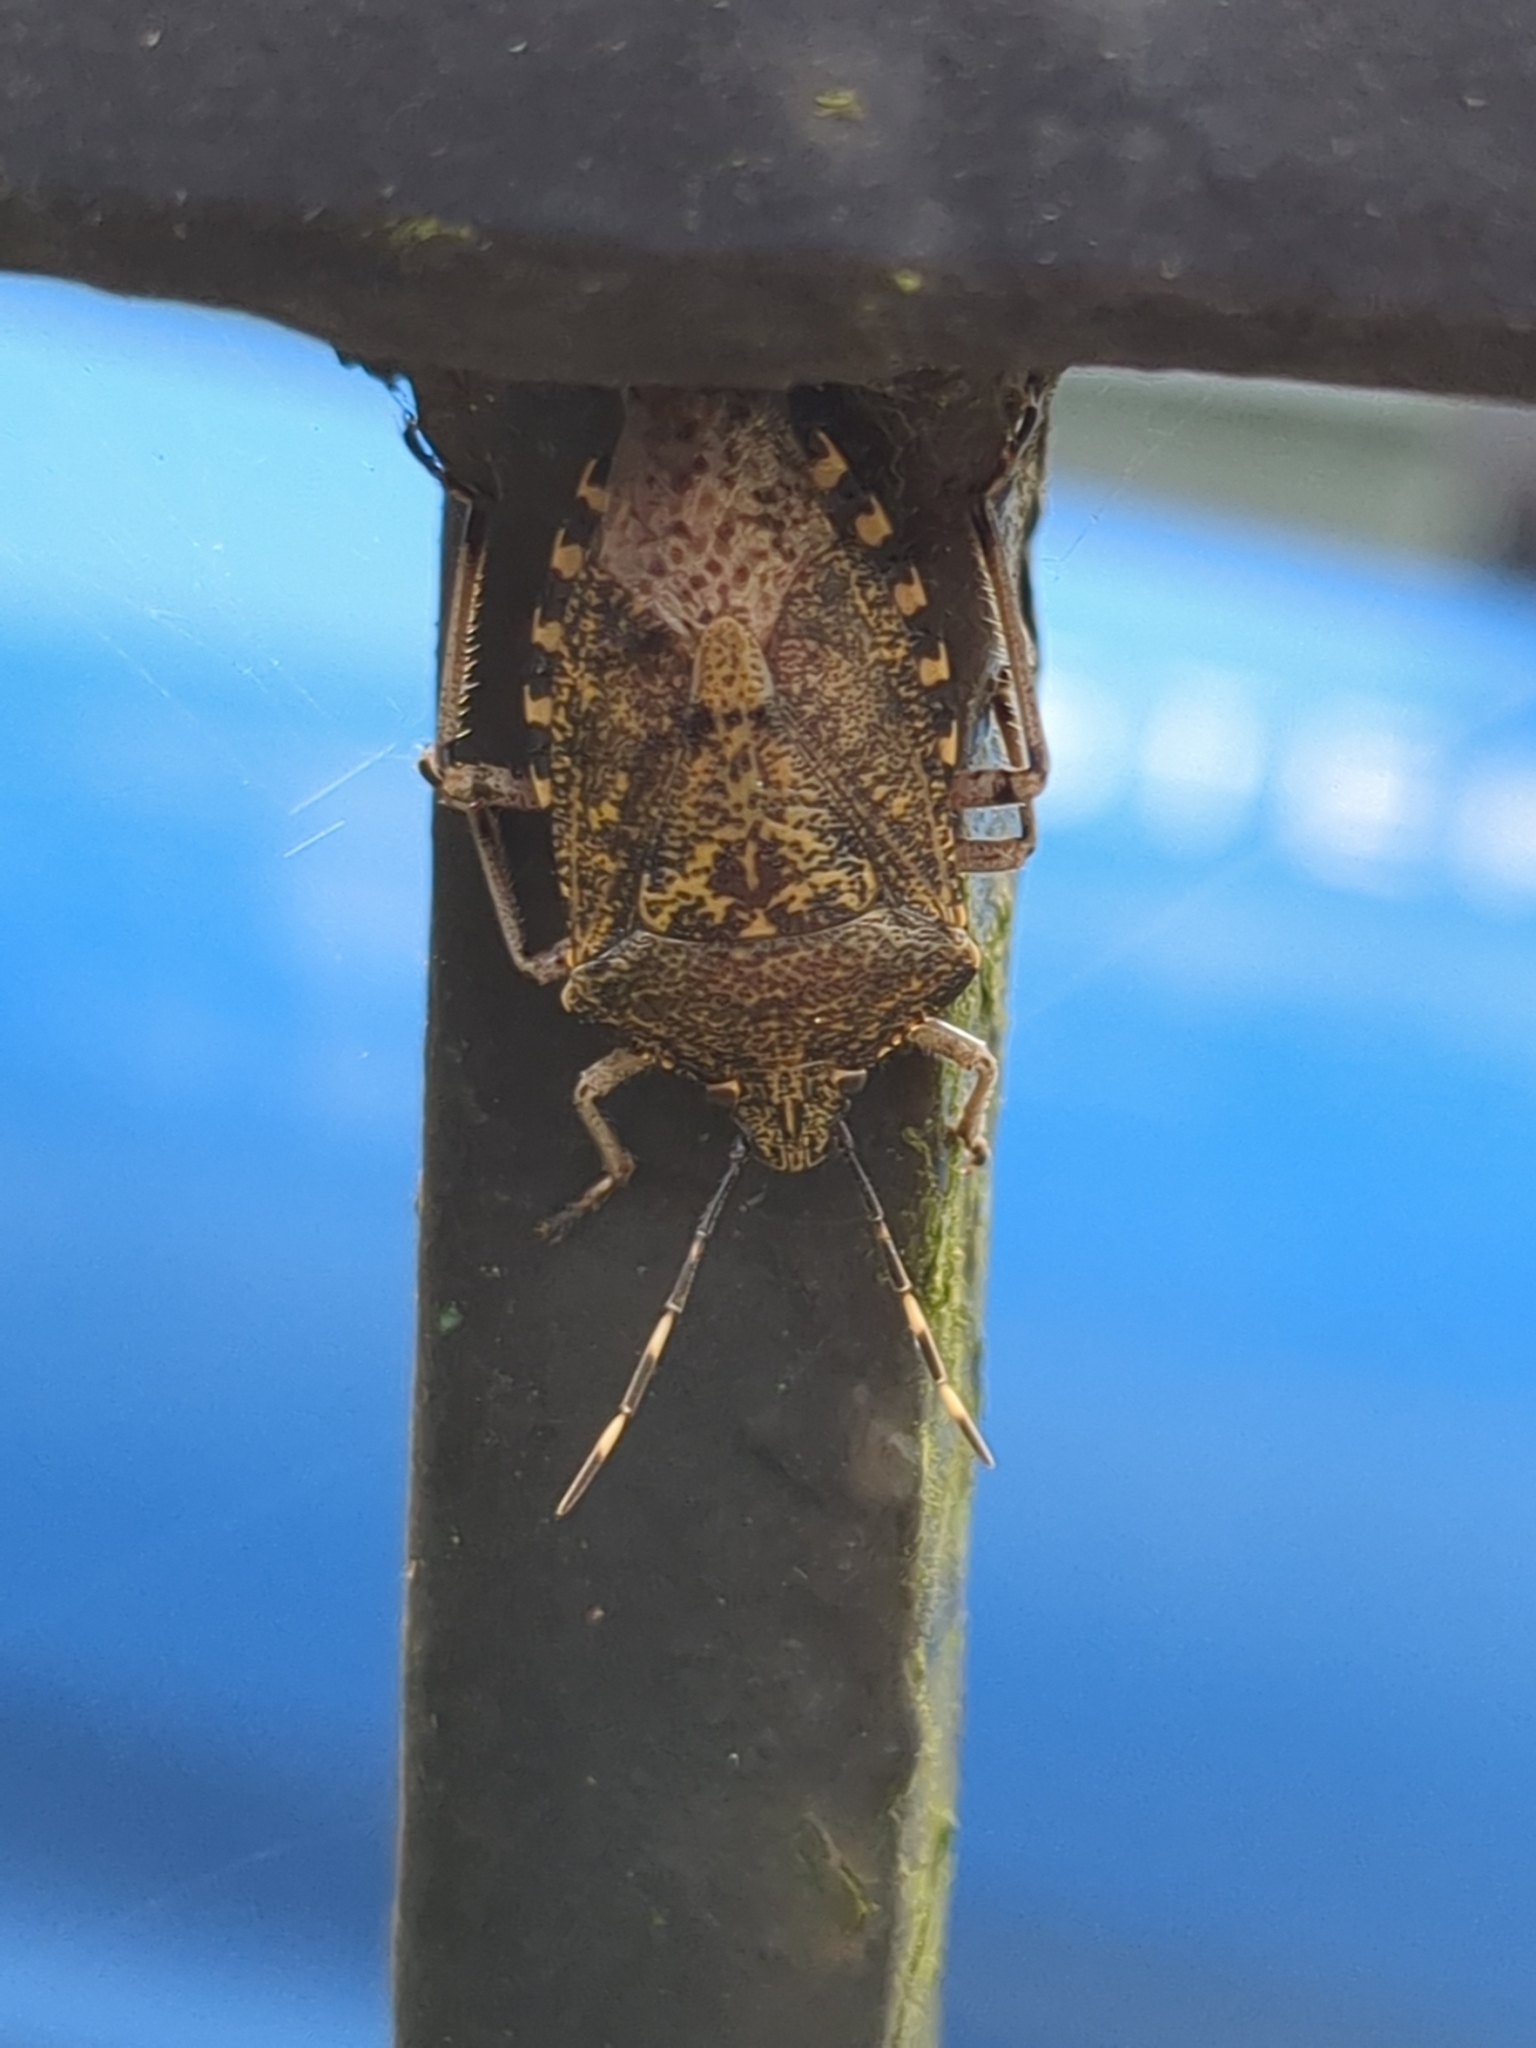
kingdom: Animalia
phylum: Arthropoda
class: Insecta
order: Hemiptera
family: Pentatomidae
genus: Rhaphigaster
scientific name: Rhaphigaster nebulosa
